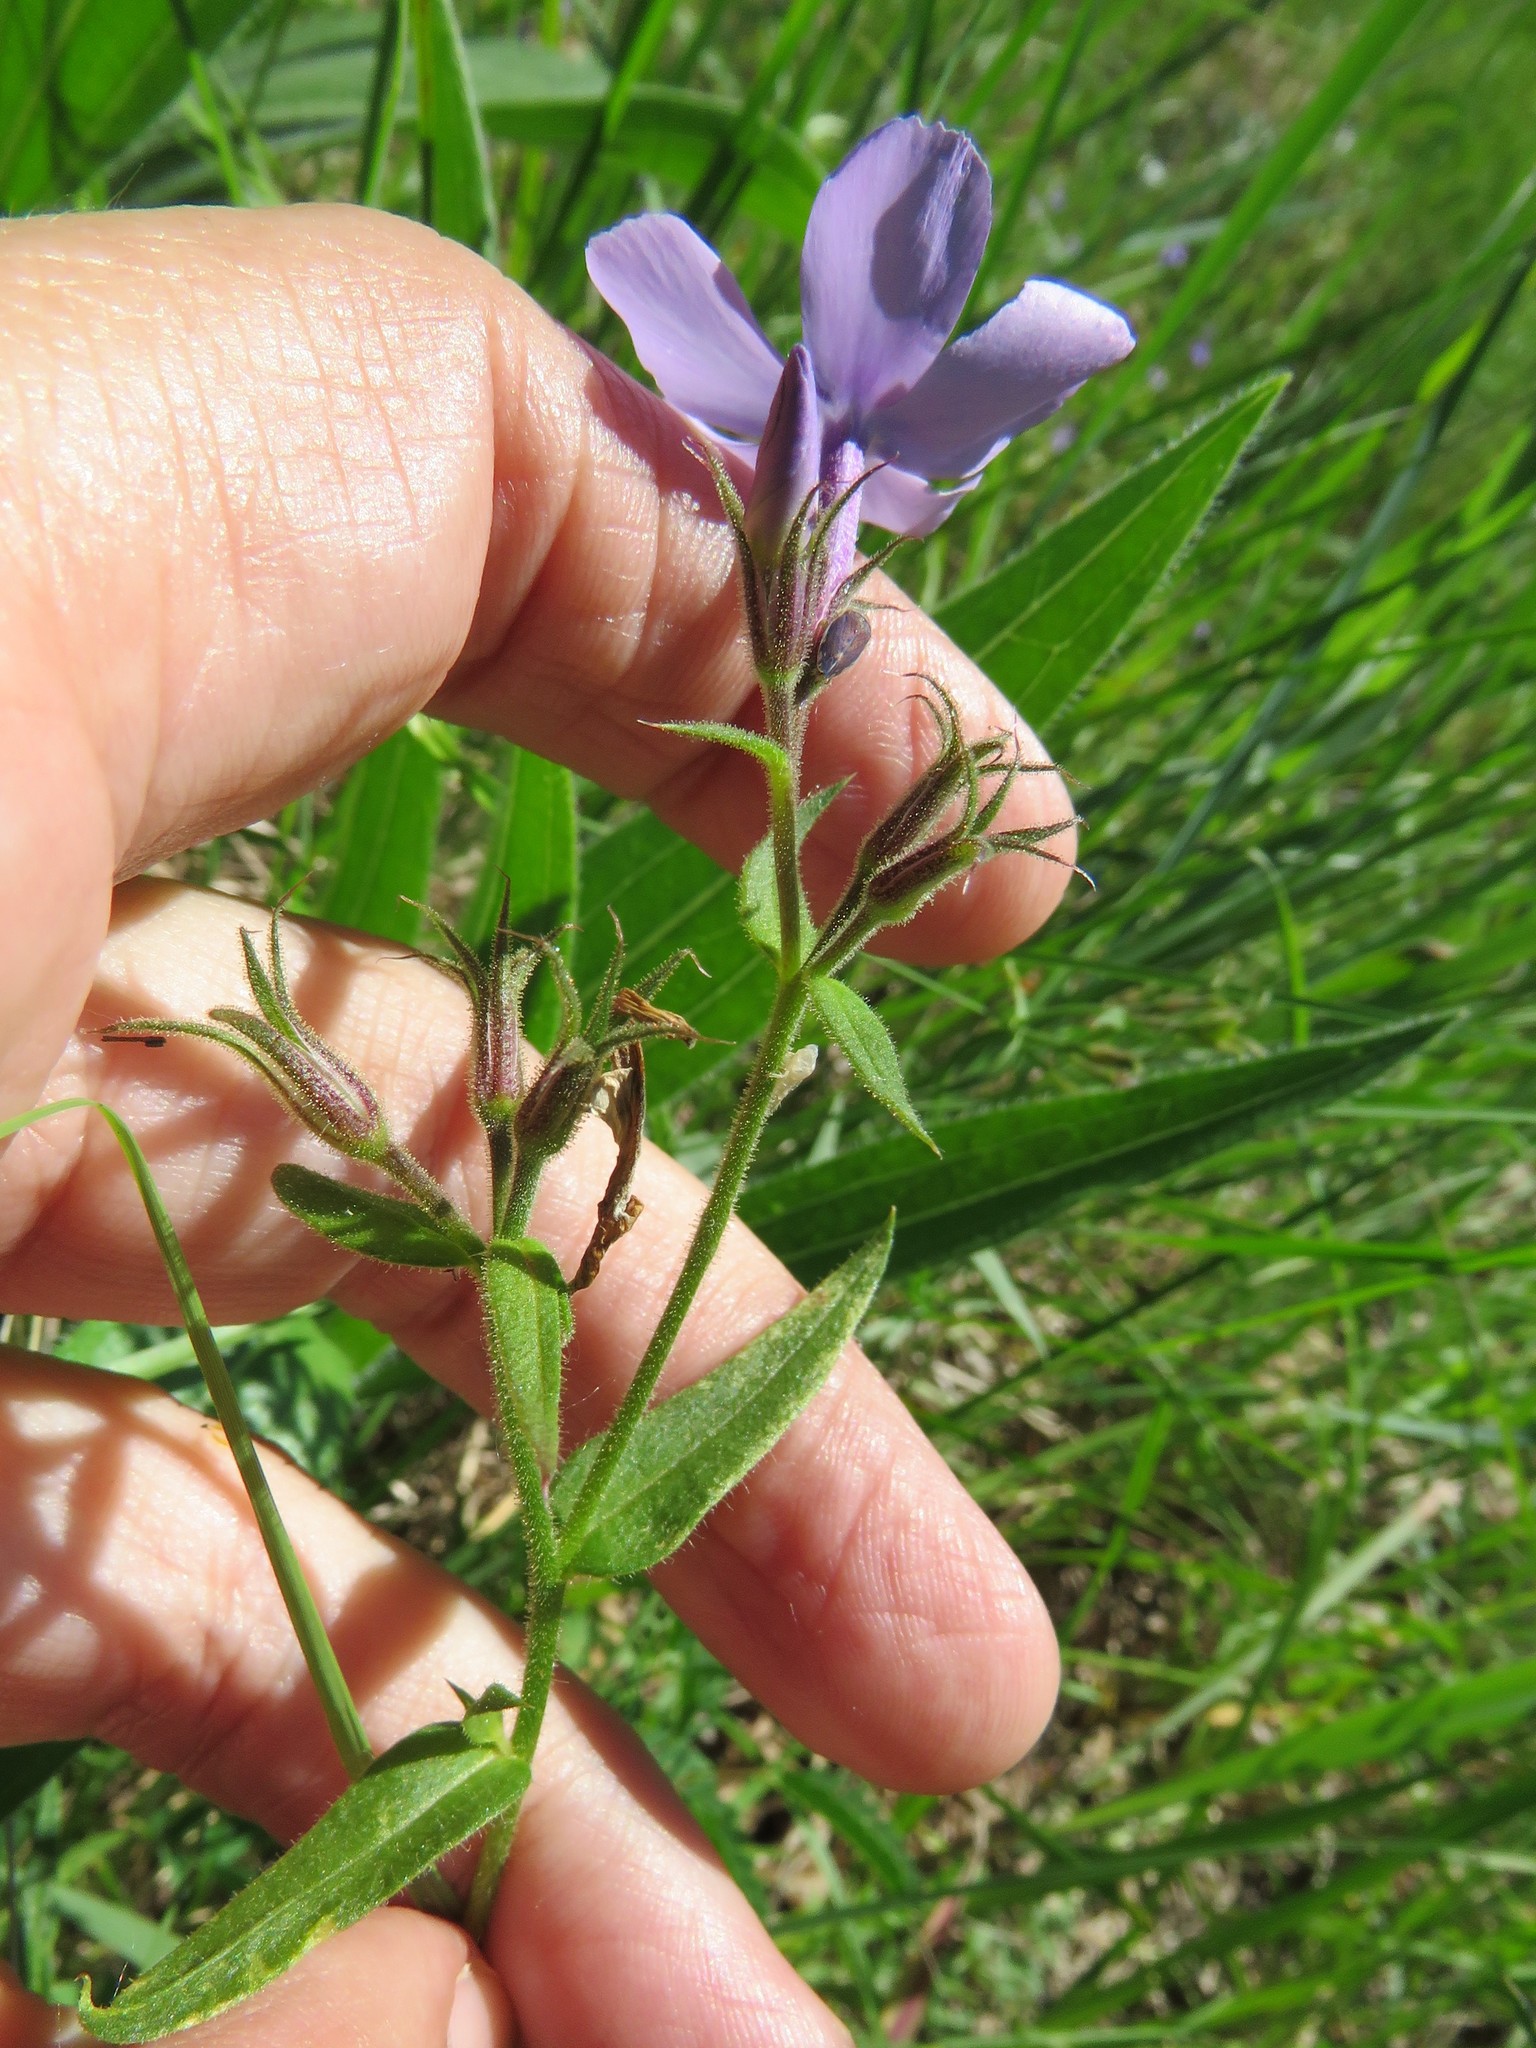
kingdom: Plantae
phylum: Tracheophyta
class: Magnoliopsida
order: Ericales
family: Polemoniaceae
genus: Phlox
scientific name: Phlox pilosa
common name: Prairie phlox
